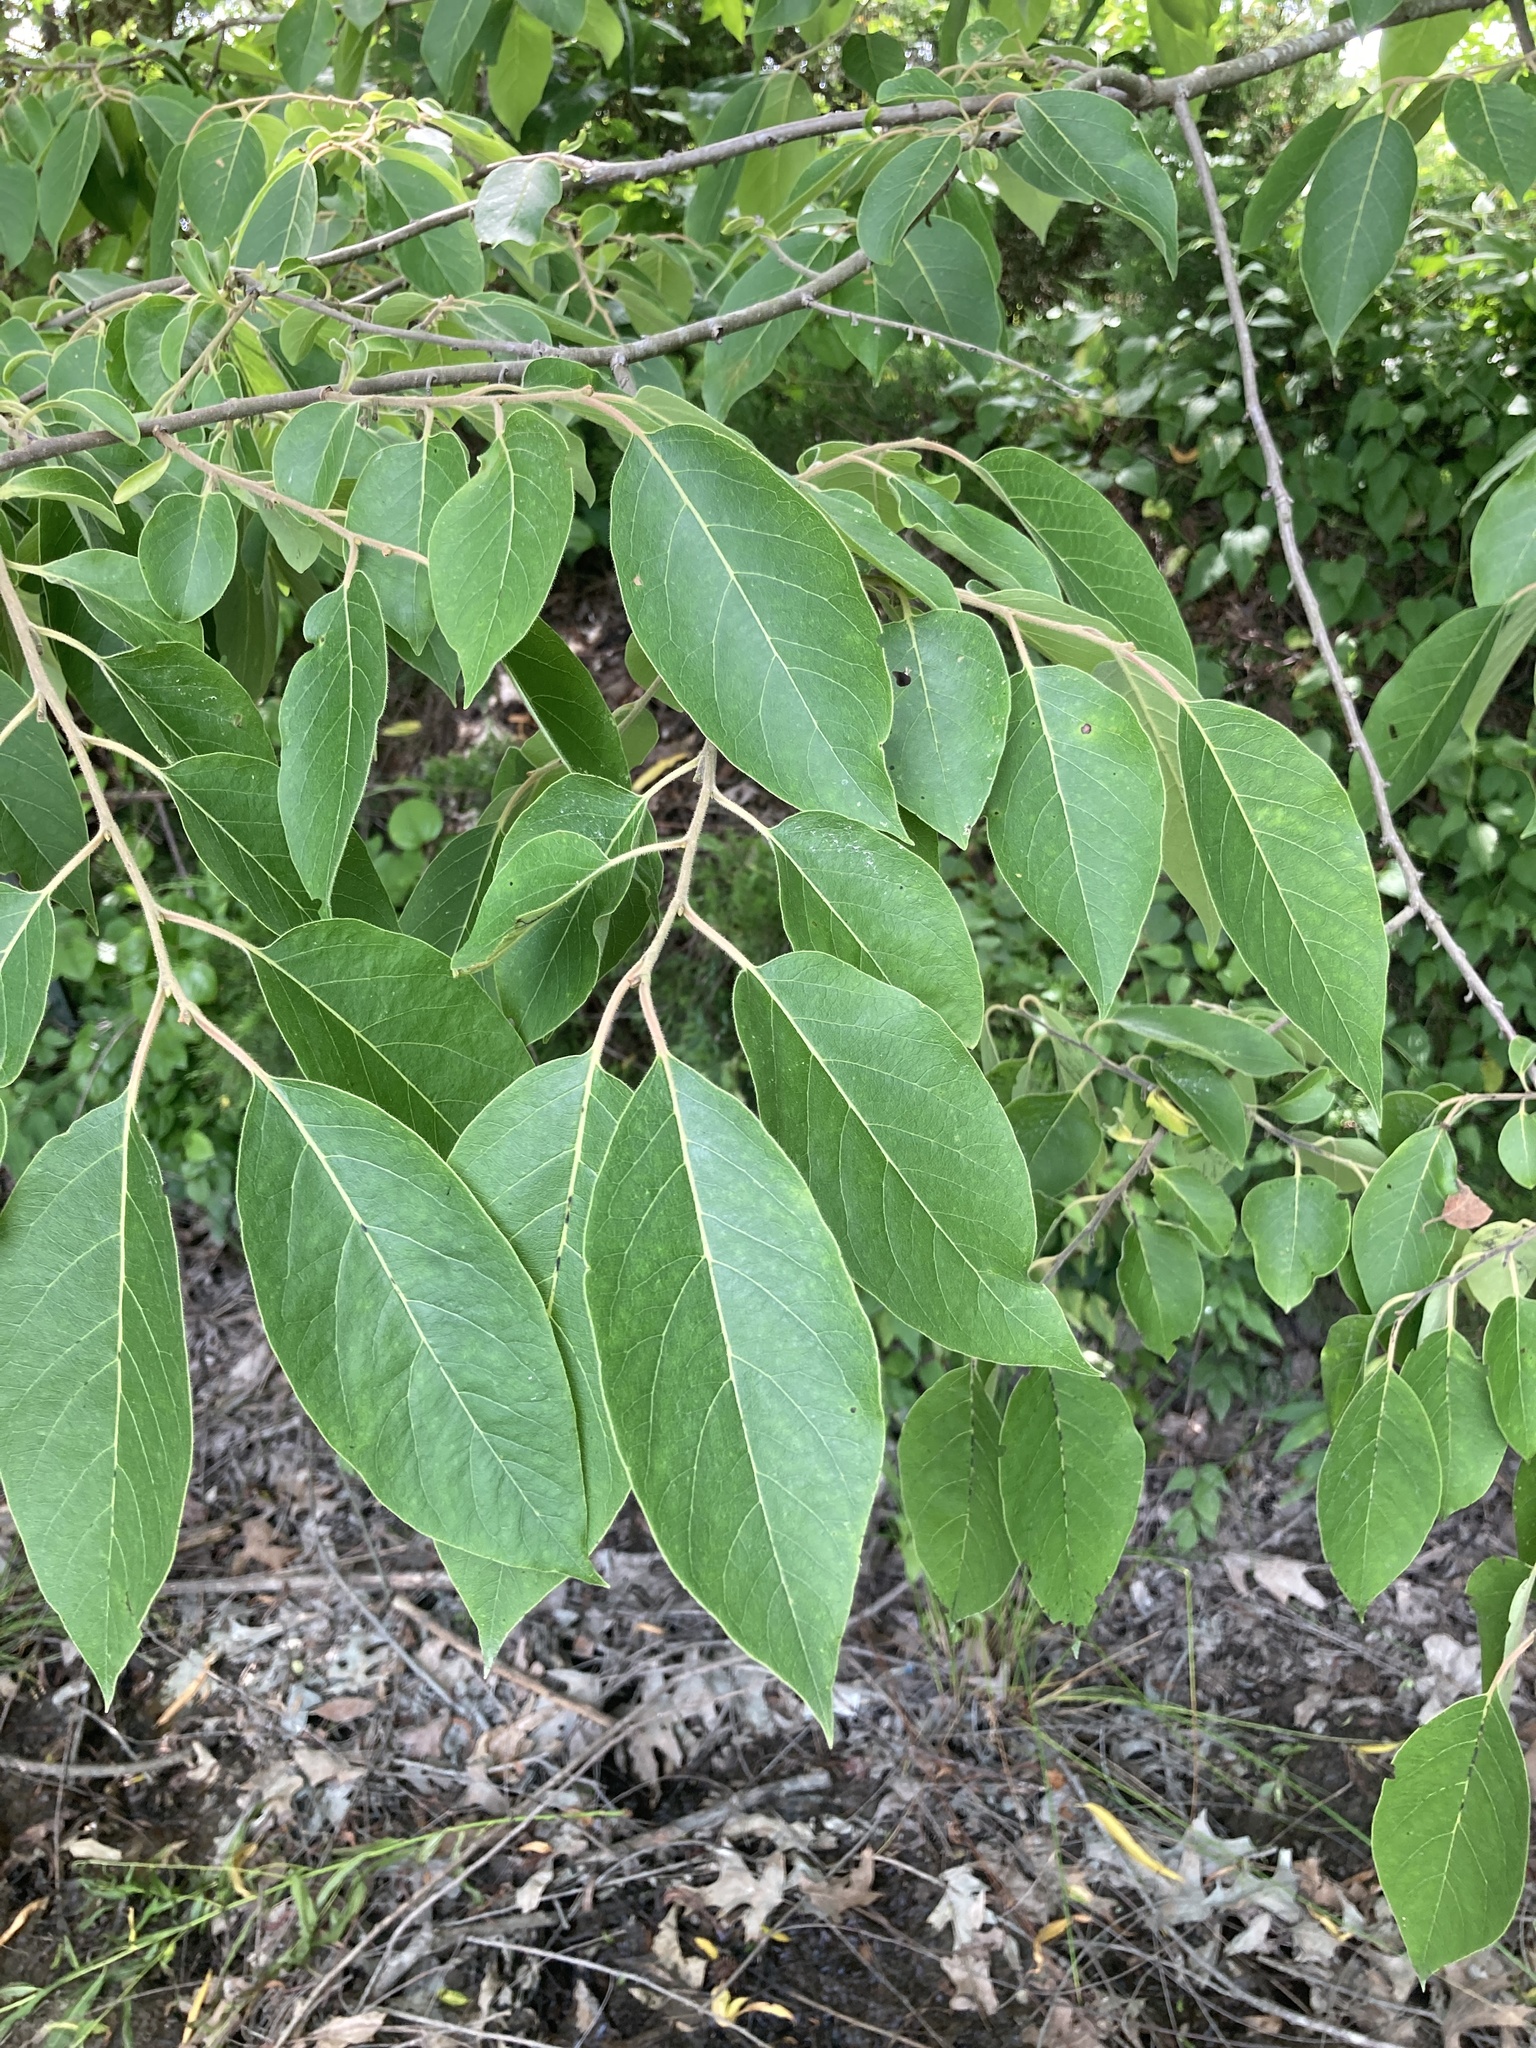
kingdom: Plantae
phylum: Tracheophyta
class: Magnoliopsida
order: Ericales
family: Ebenaceae
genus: Diospyros
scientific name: Diospyros virginiana
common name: Persimmon
